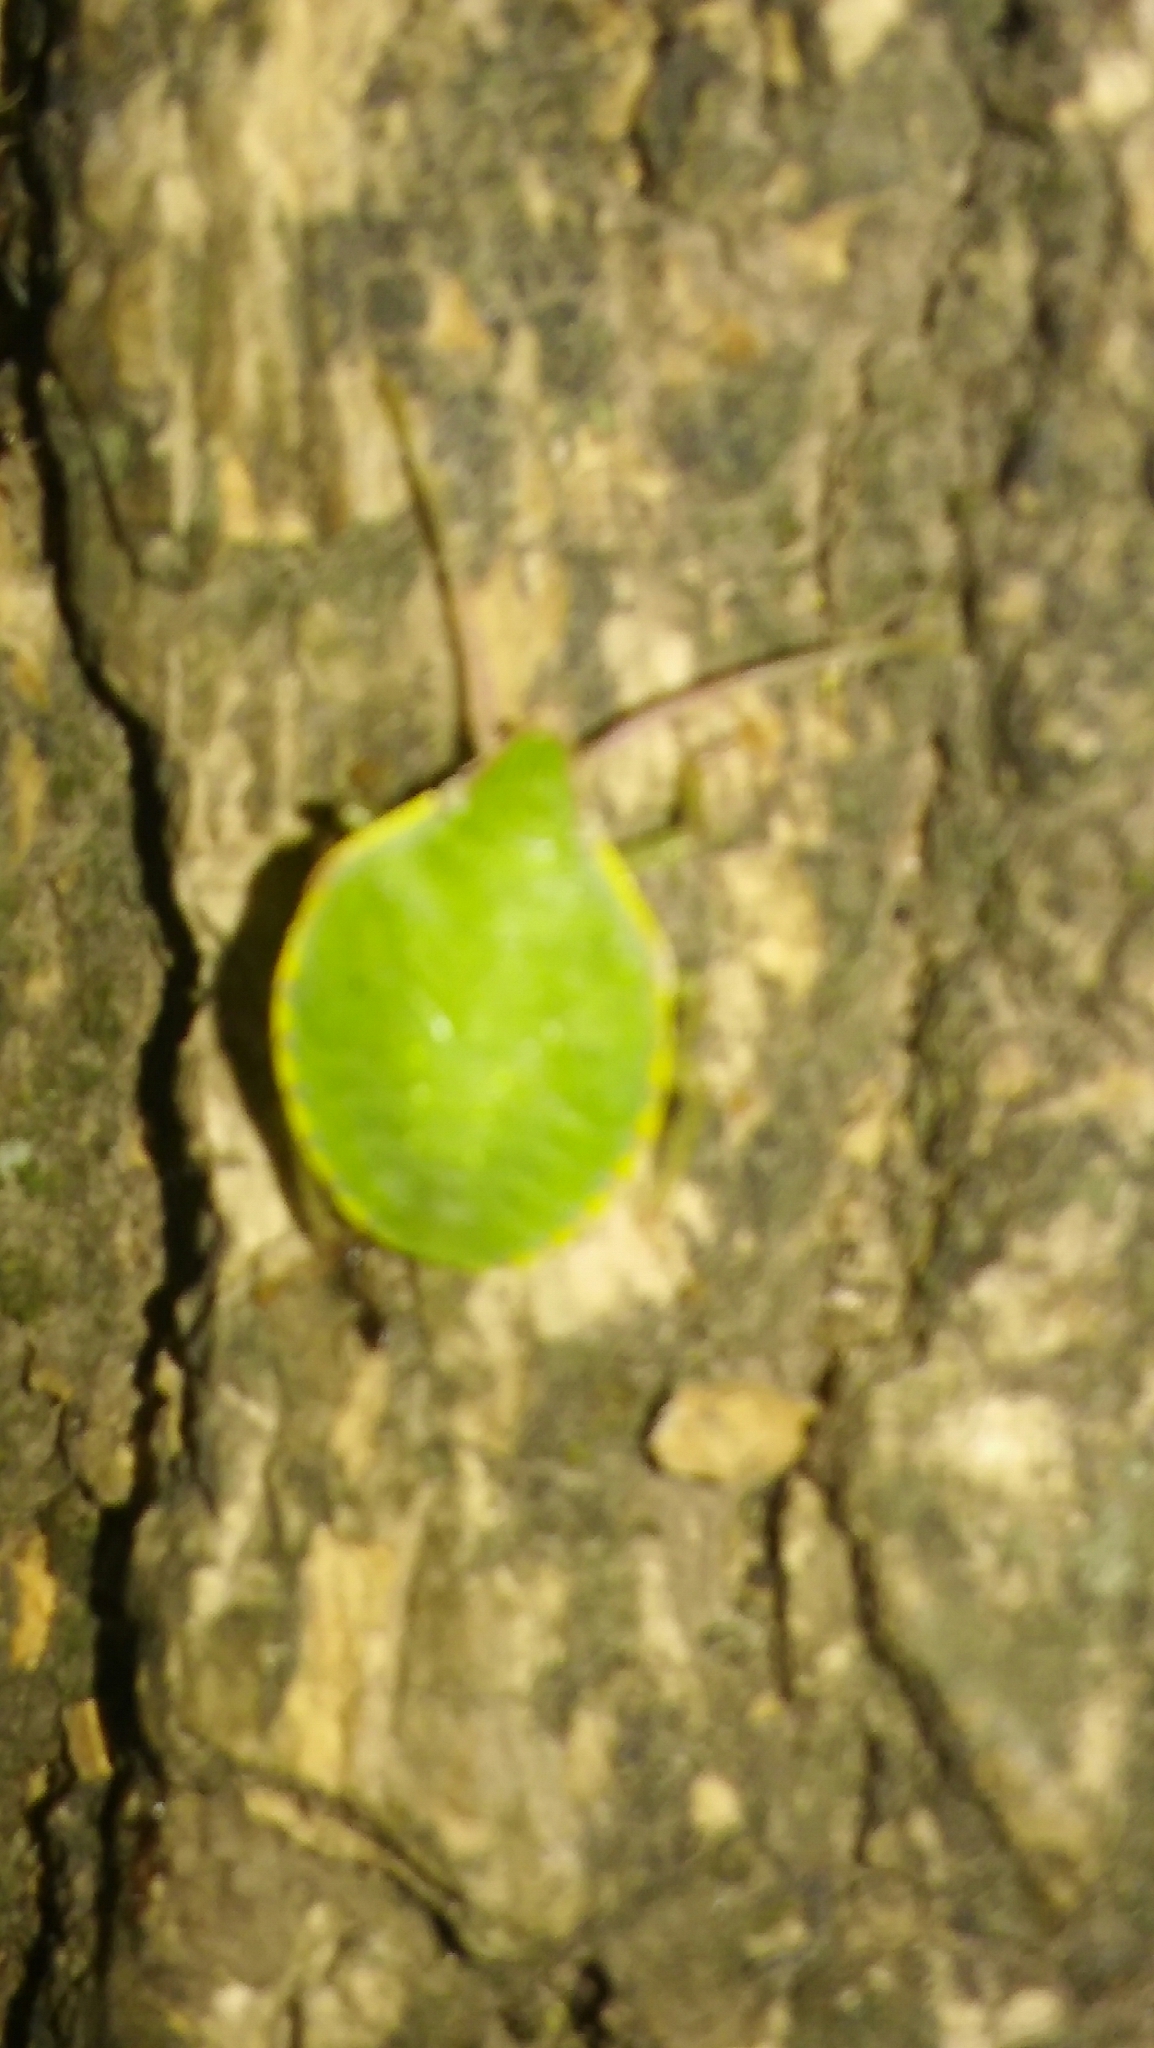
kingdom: Animalia
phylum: Arthropoda
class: Insecta
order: Hemiptera
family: Pentatomidae
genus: Loxa
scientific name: Loxa
